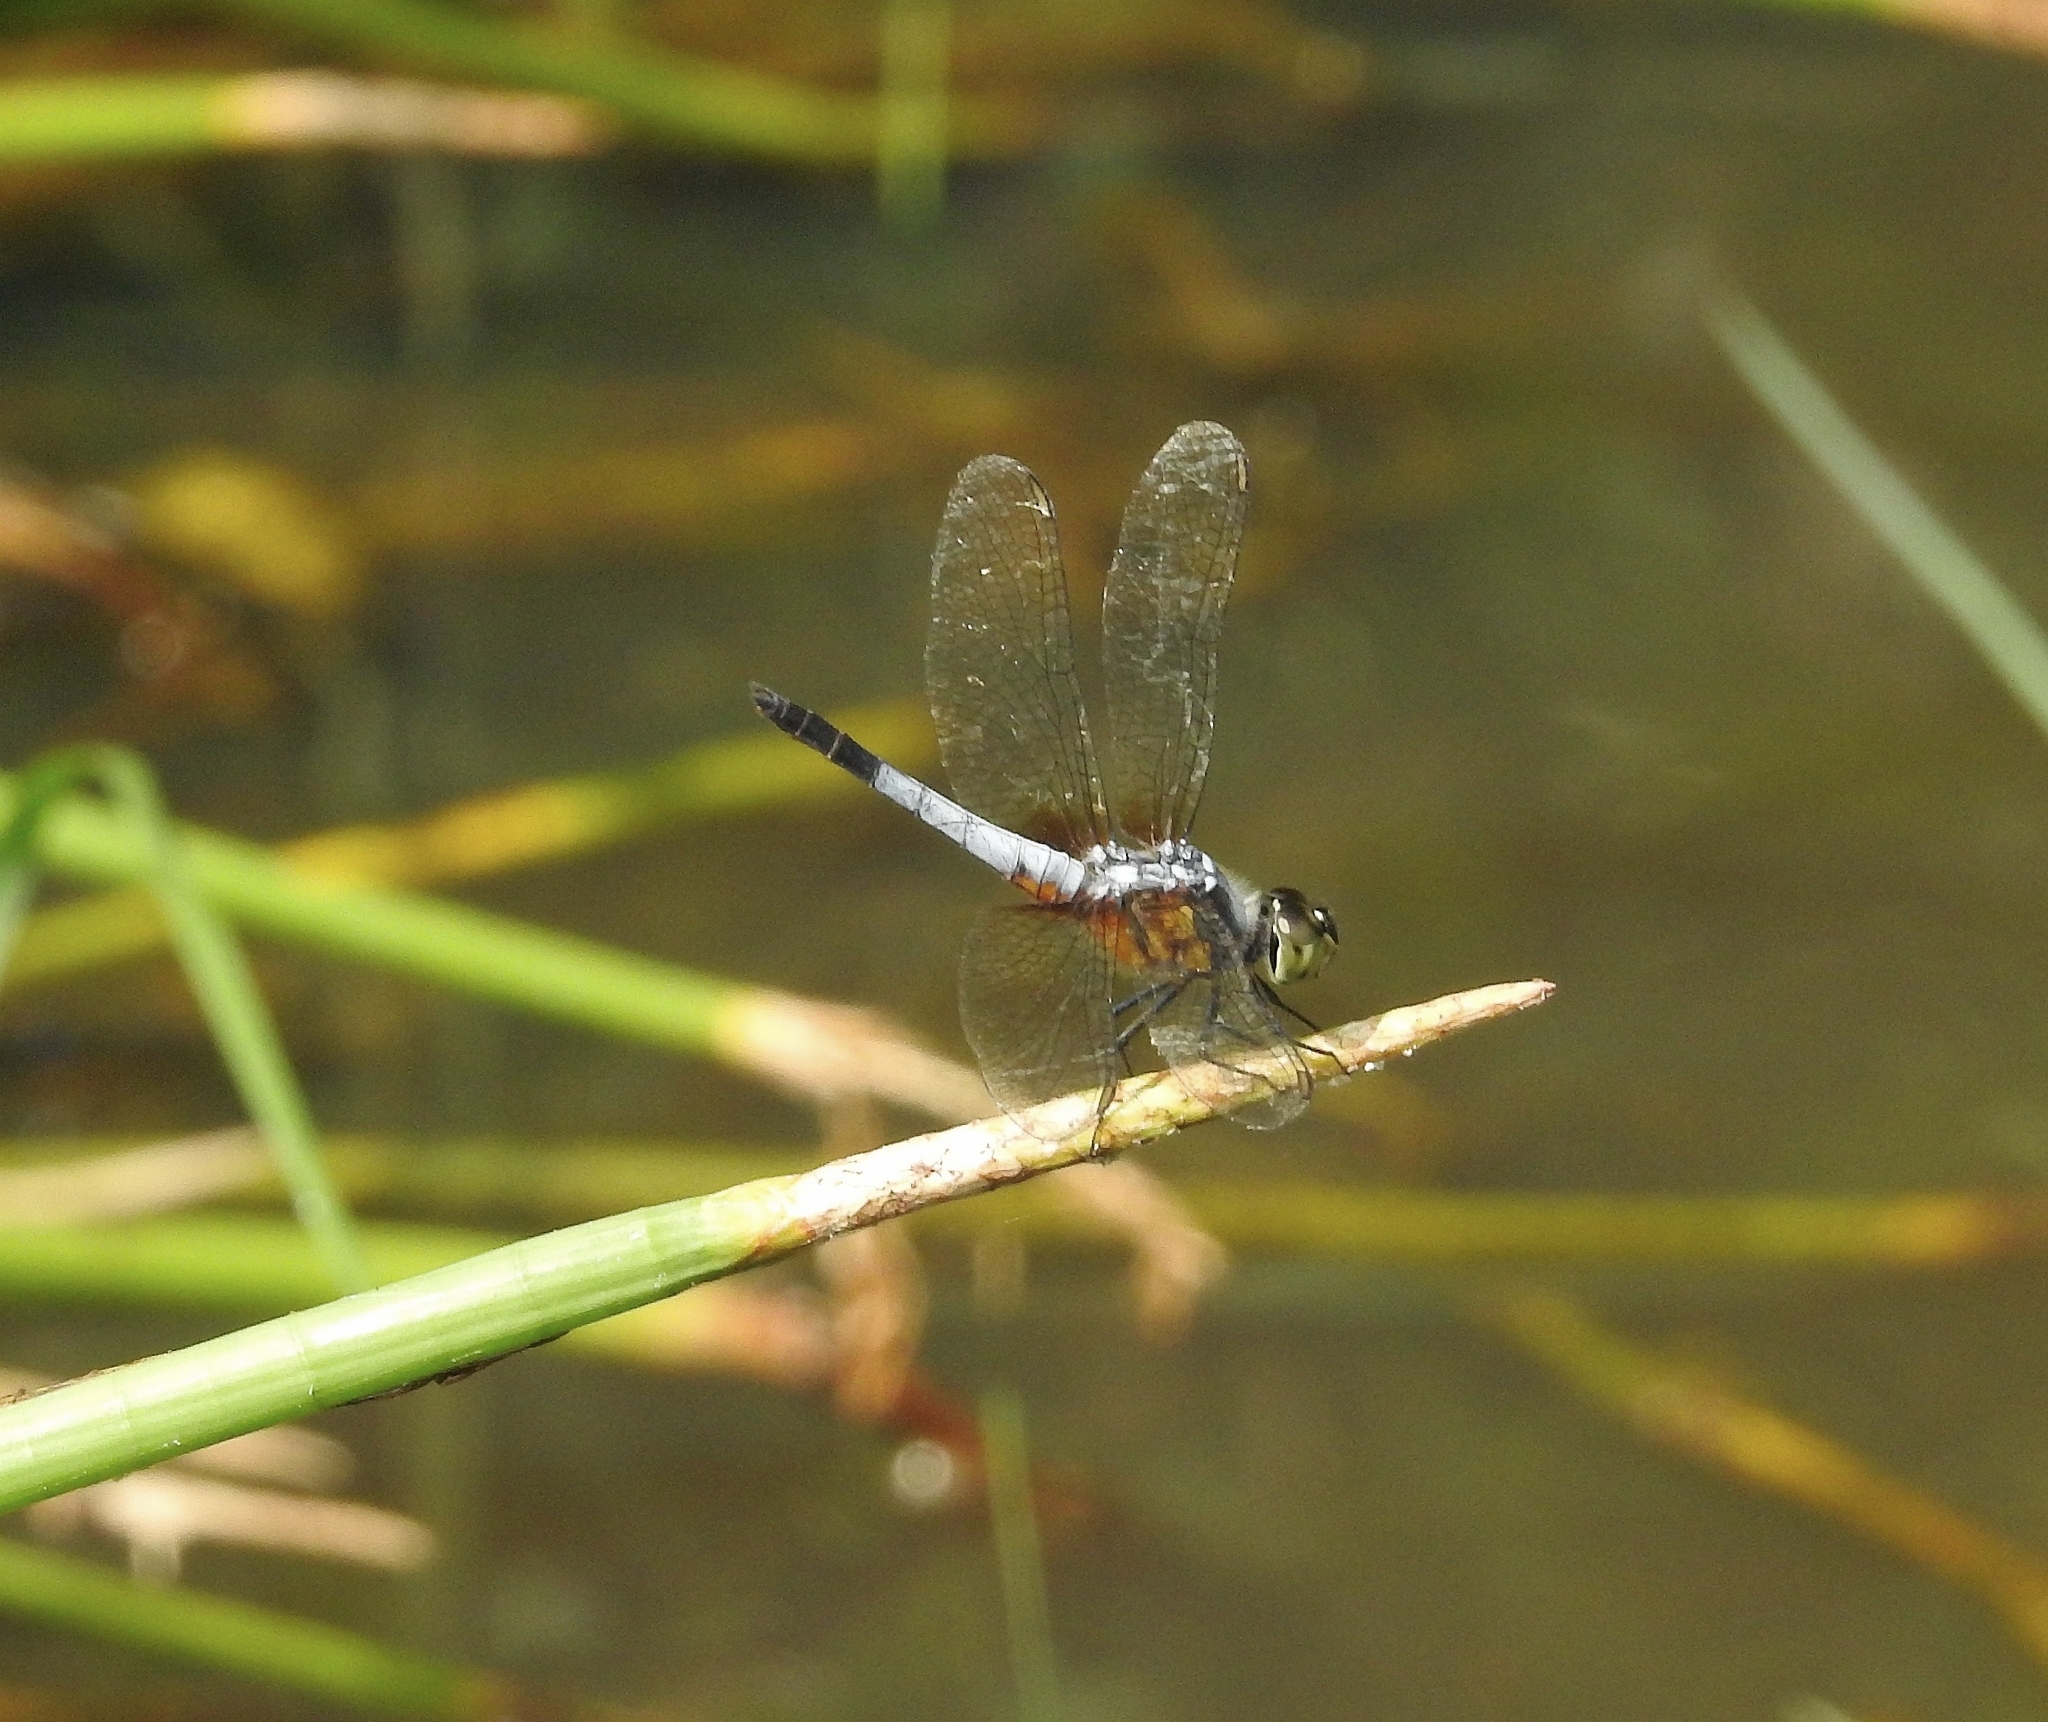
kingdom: Animalia
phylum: Arthropoda
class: Insecta
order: Odonata
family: Libellulidae
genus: Brachydiplax
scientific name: Brachydiplax chalybea
